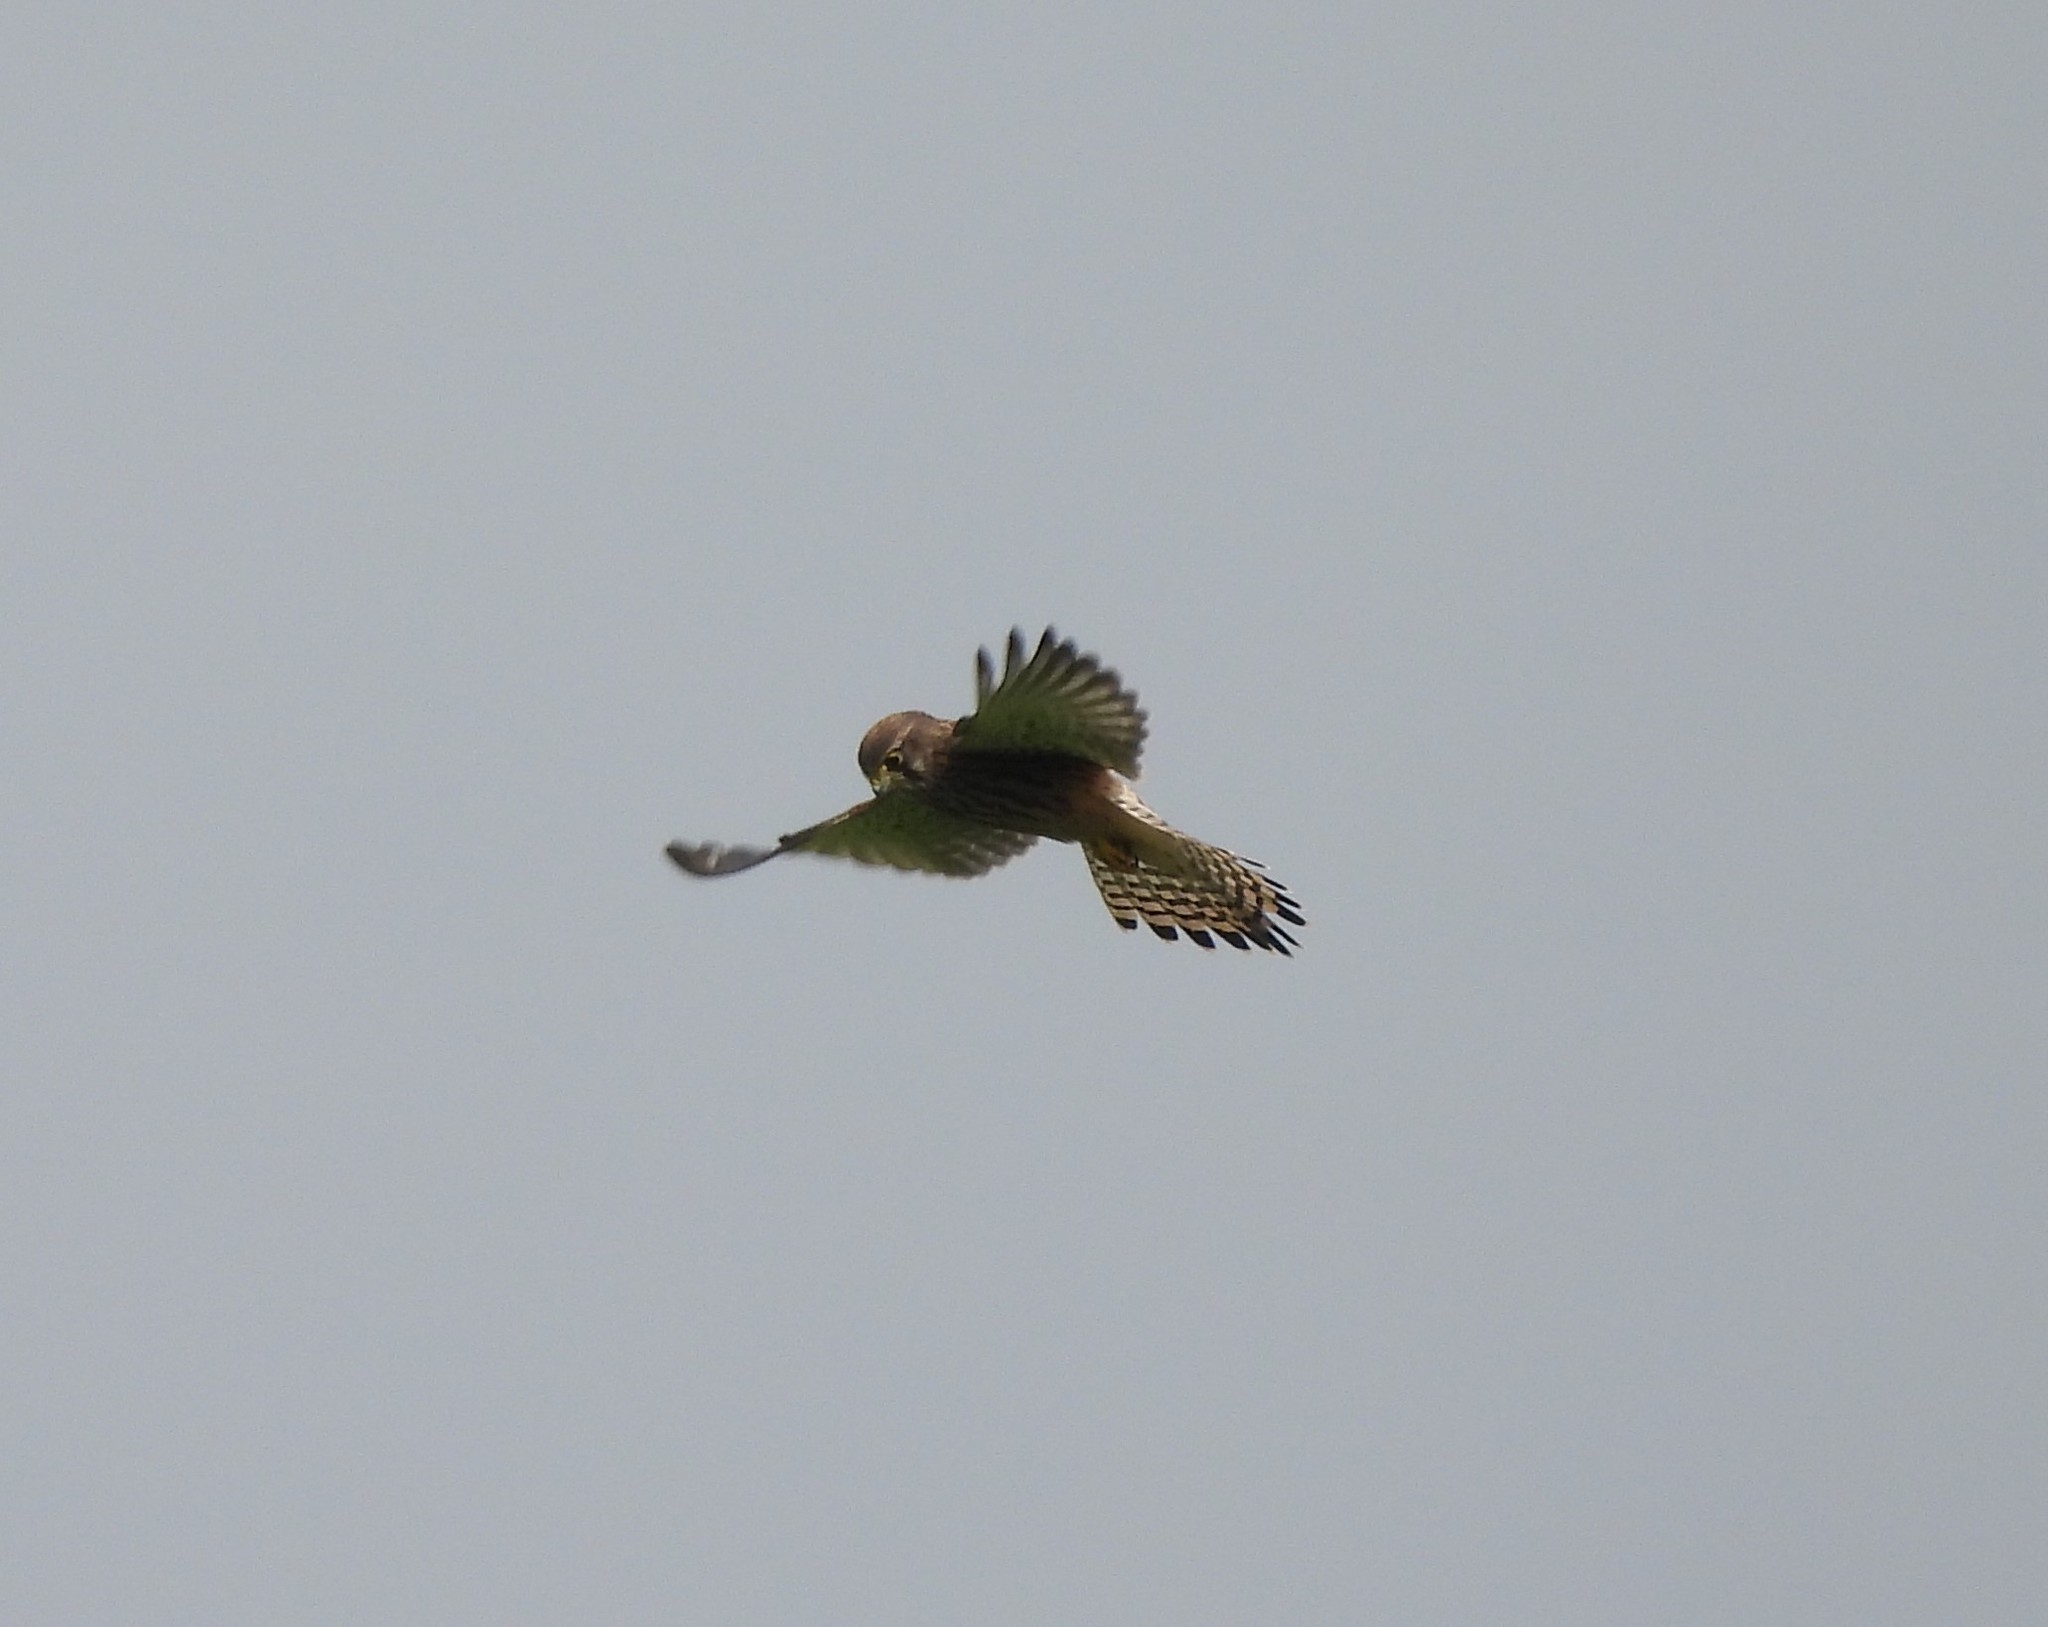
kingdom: Animalia
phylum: Chordata
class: Aves
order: Falconiformes
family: Falconidae
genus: Falco
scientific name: Falco tinnunculus
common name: Common kestrel
